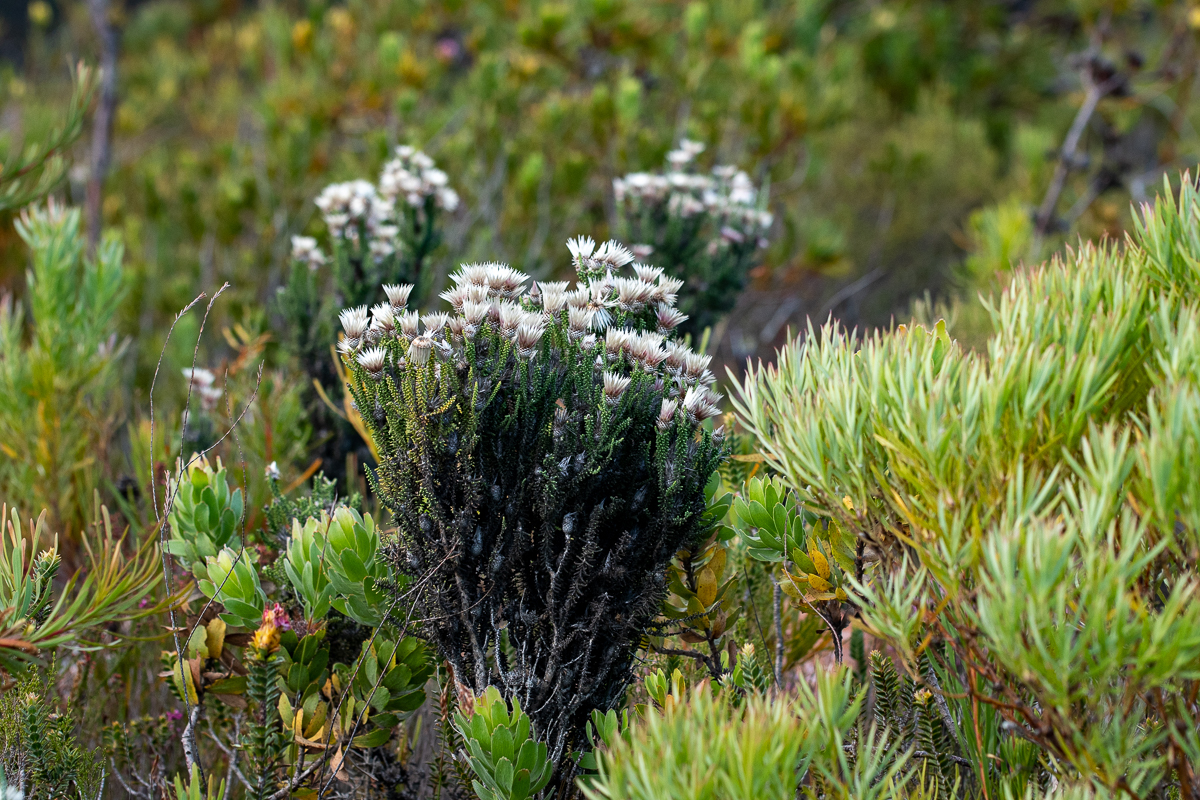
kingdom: Plantae
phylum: Tracheophyta
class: Magnoliopsida
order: Asterales
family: Asteraceae
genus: Phaenocoma
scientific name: Phaenocoma prolifera
